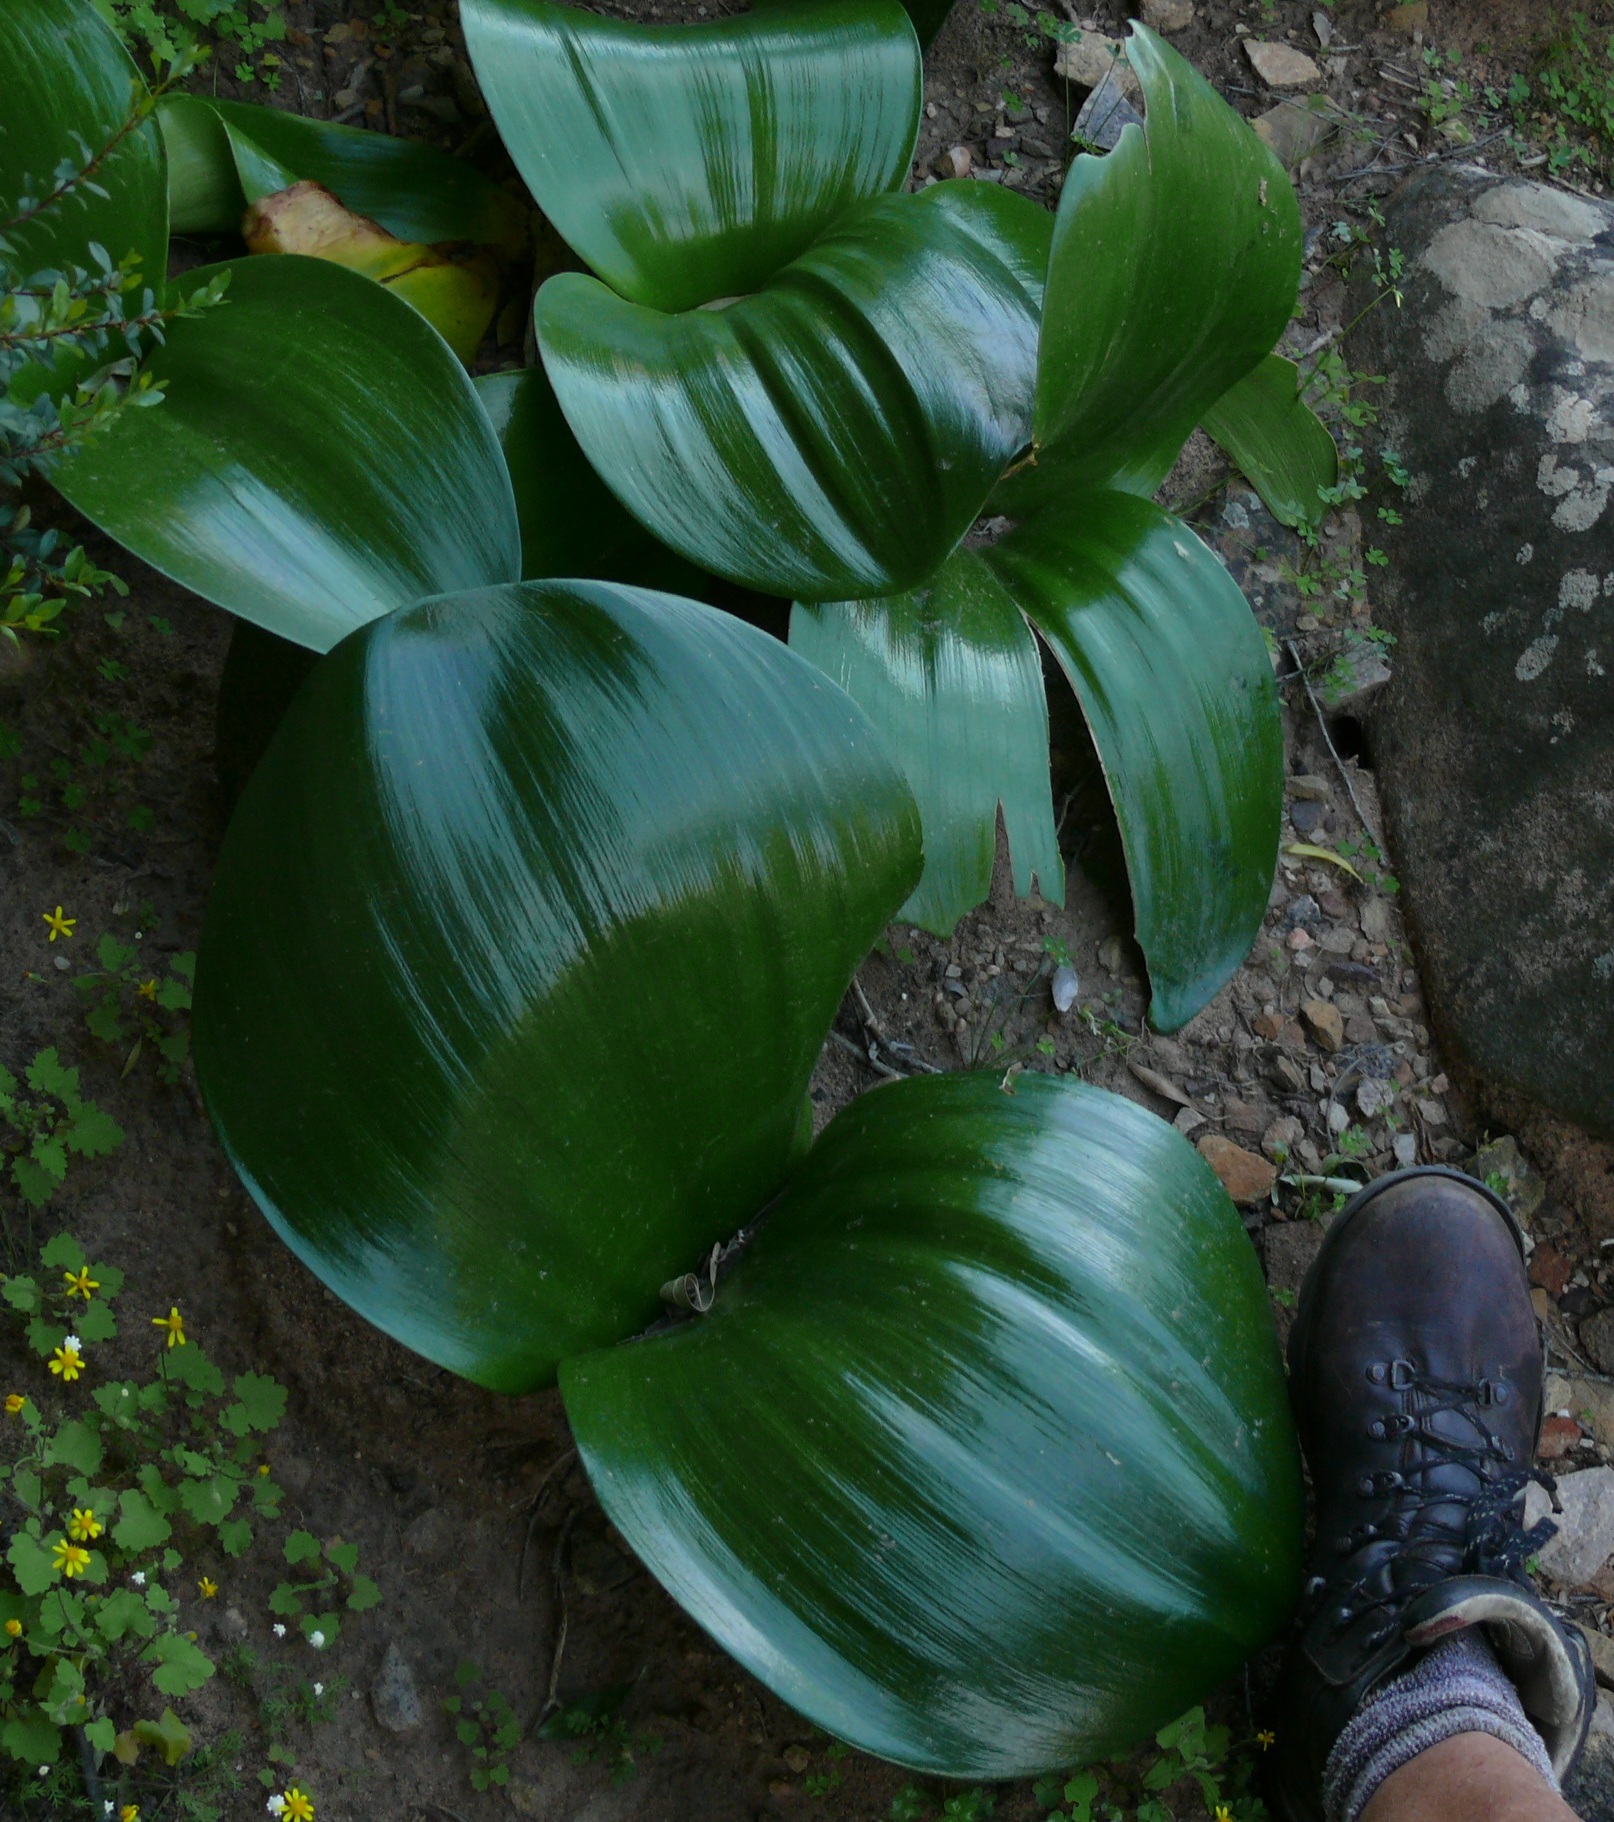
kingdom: Plantae
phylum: Tracheophyta
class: Liliopsida
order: Asparagales
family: Amaryllidaceae
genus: Haemanthus
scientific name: Haemanthus coccineus
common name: Cape-tulip
